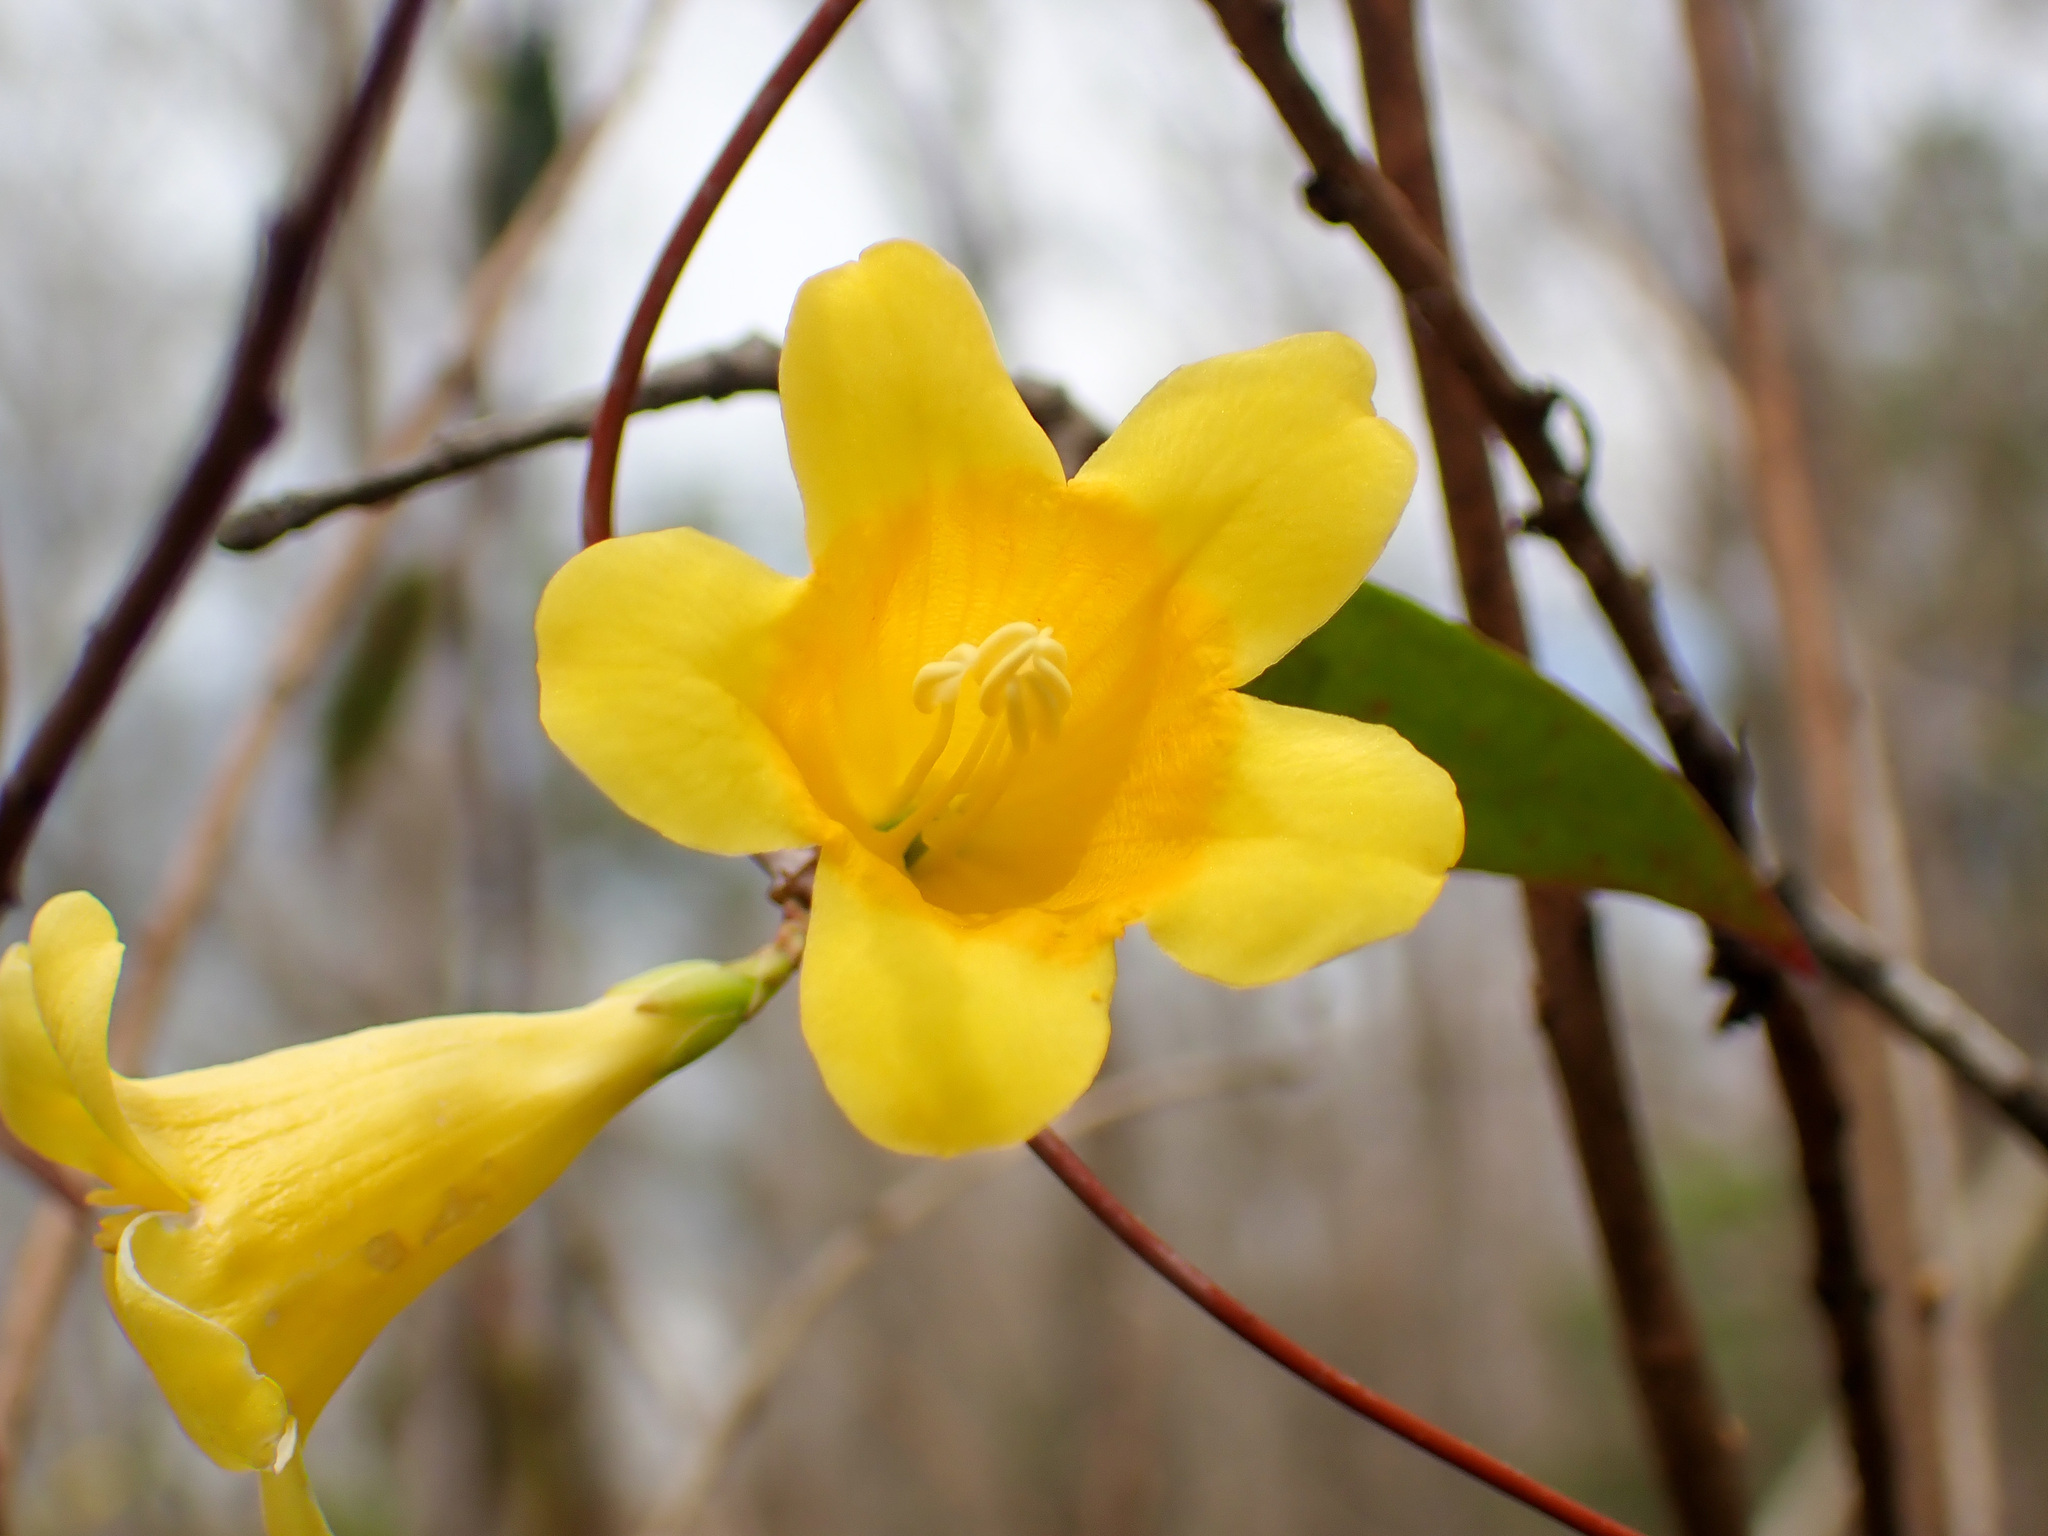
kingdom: Plantae
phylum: Tracheophyta
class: Magnoliopsida
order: Gentianales
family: Gelsemiaceae
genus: Gelsemium
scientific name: Gelsemium sempervirens
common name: Carolina-jasmine
